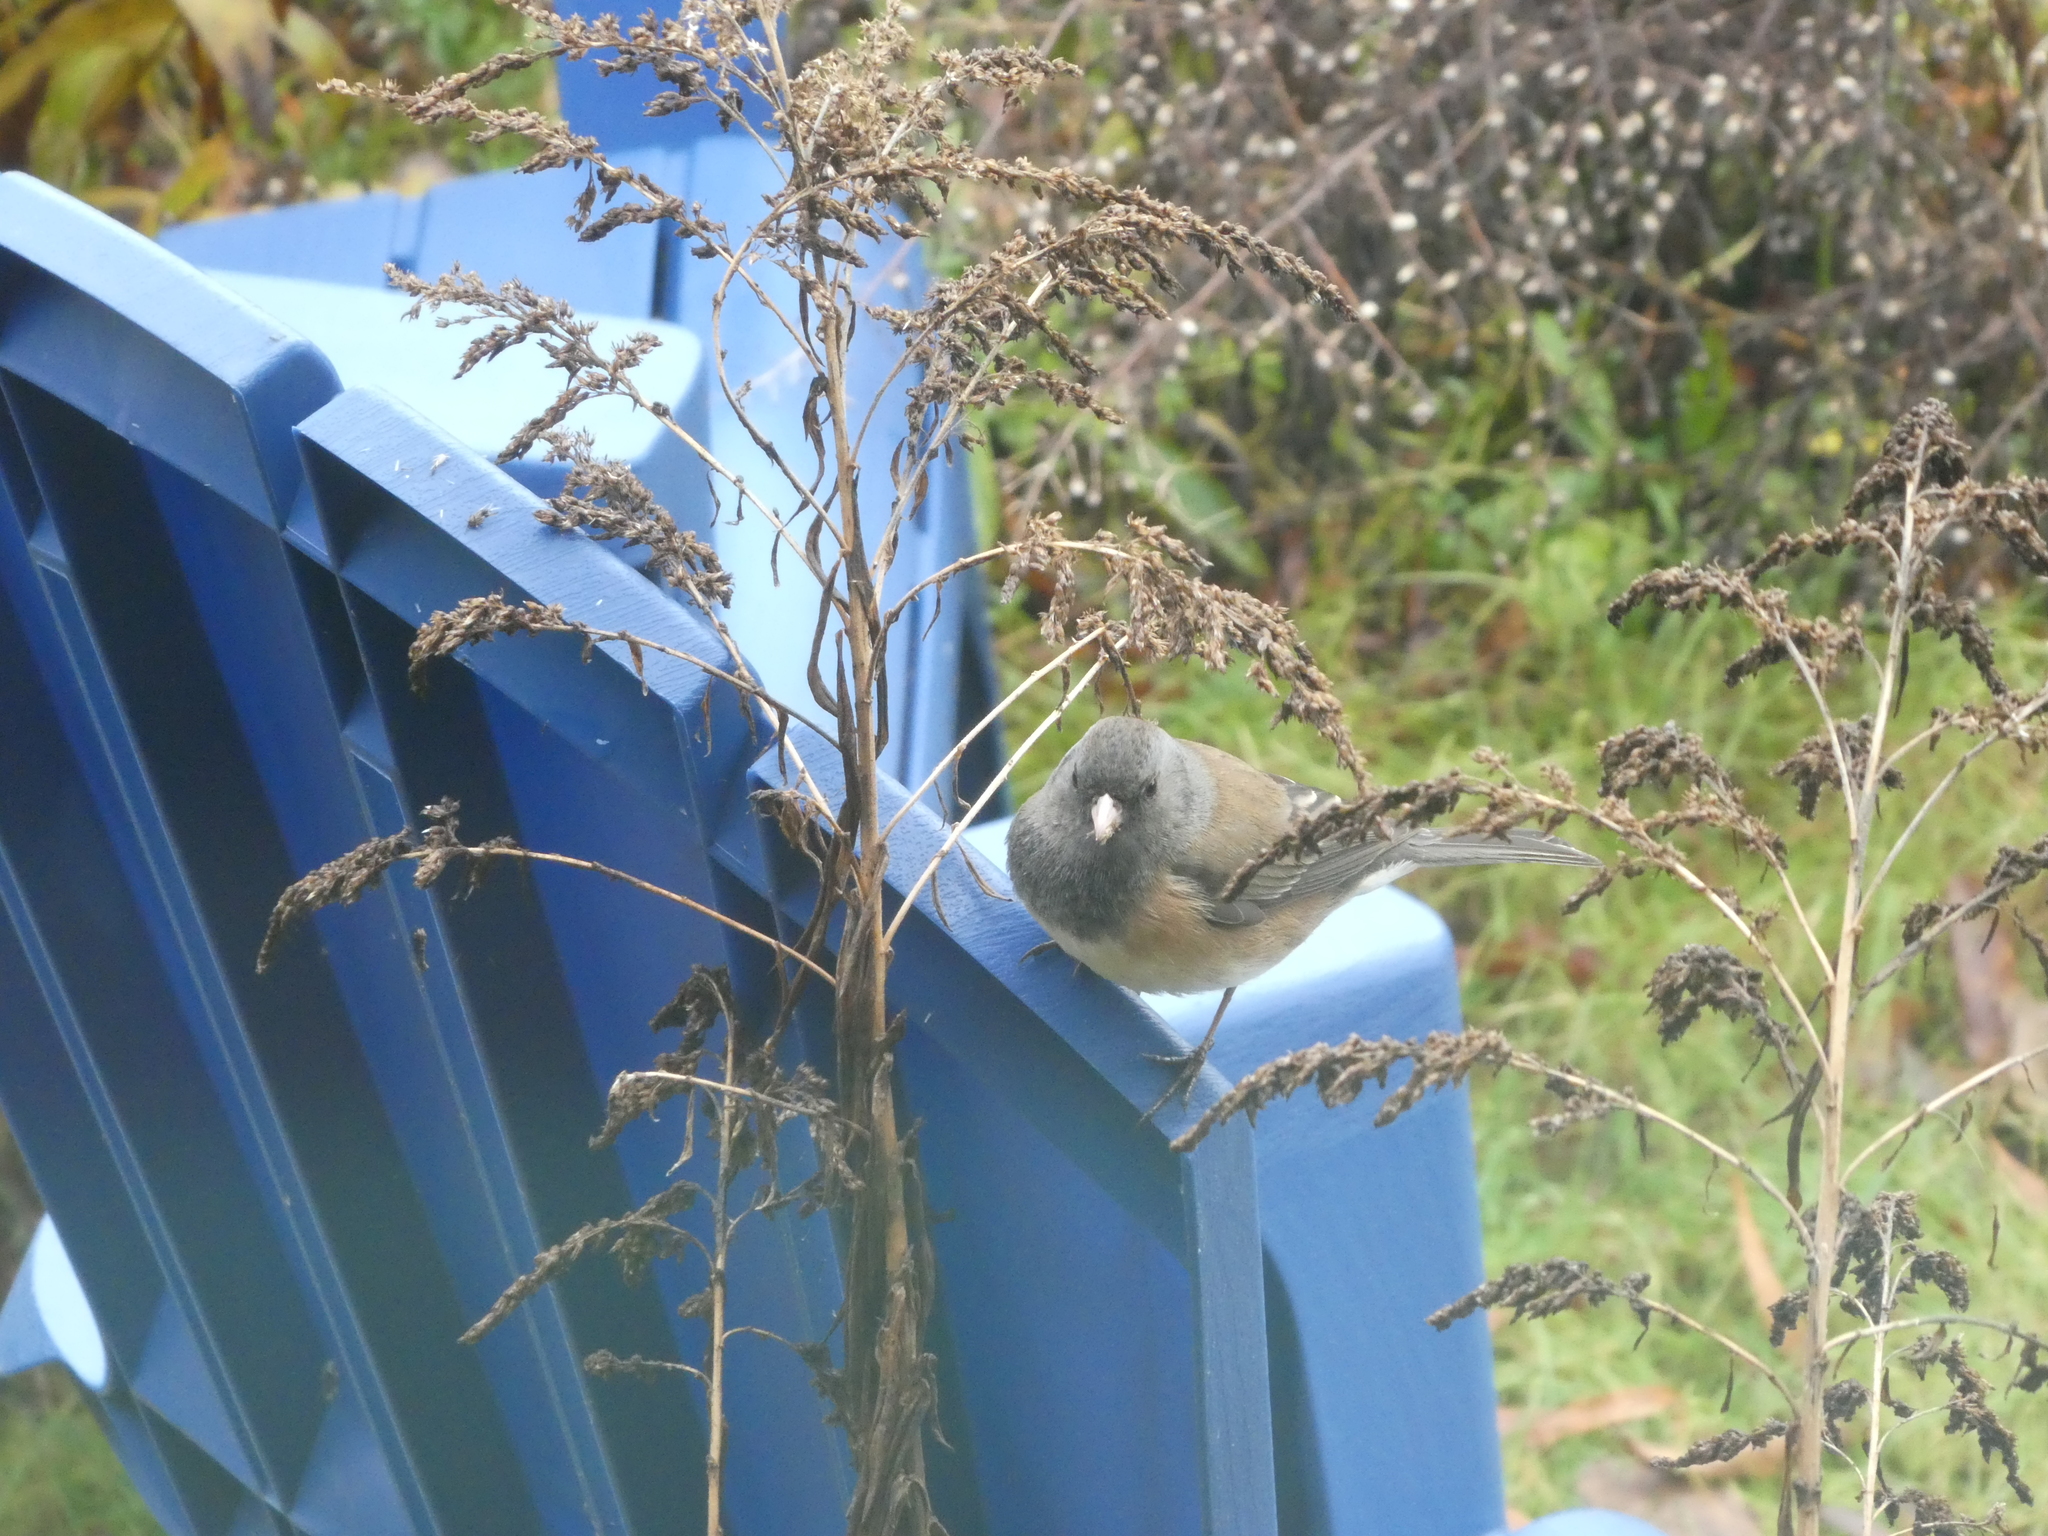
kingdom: Animalia
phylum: Chordata
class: Aves
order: Passeriformes
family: Passerellidae
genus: Junco
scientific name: Junco hyemalis
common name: Dark-eyed junco
